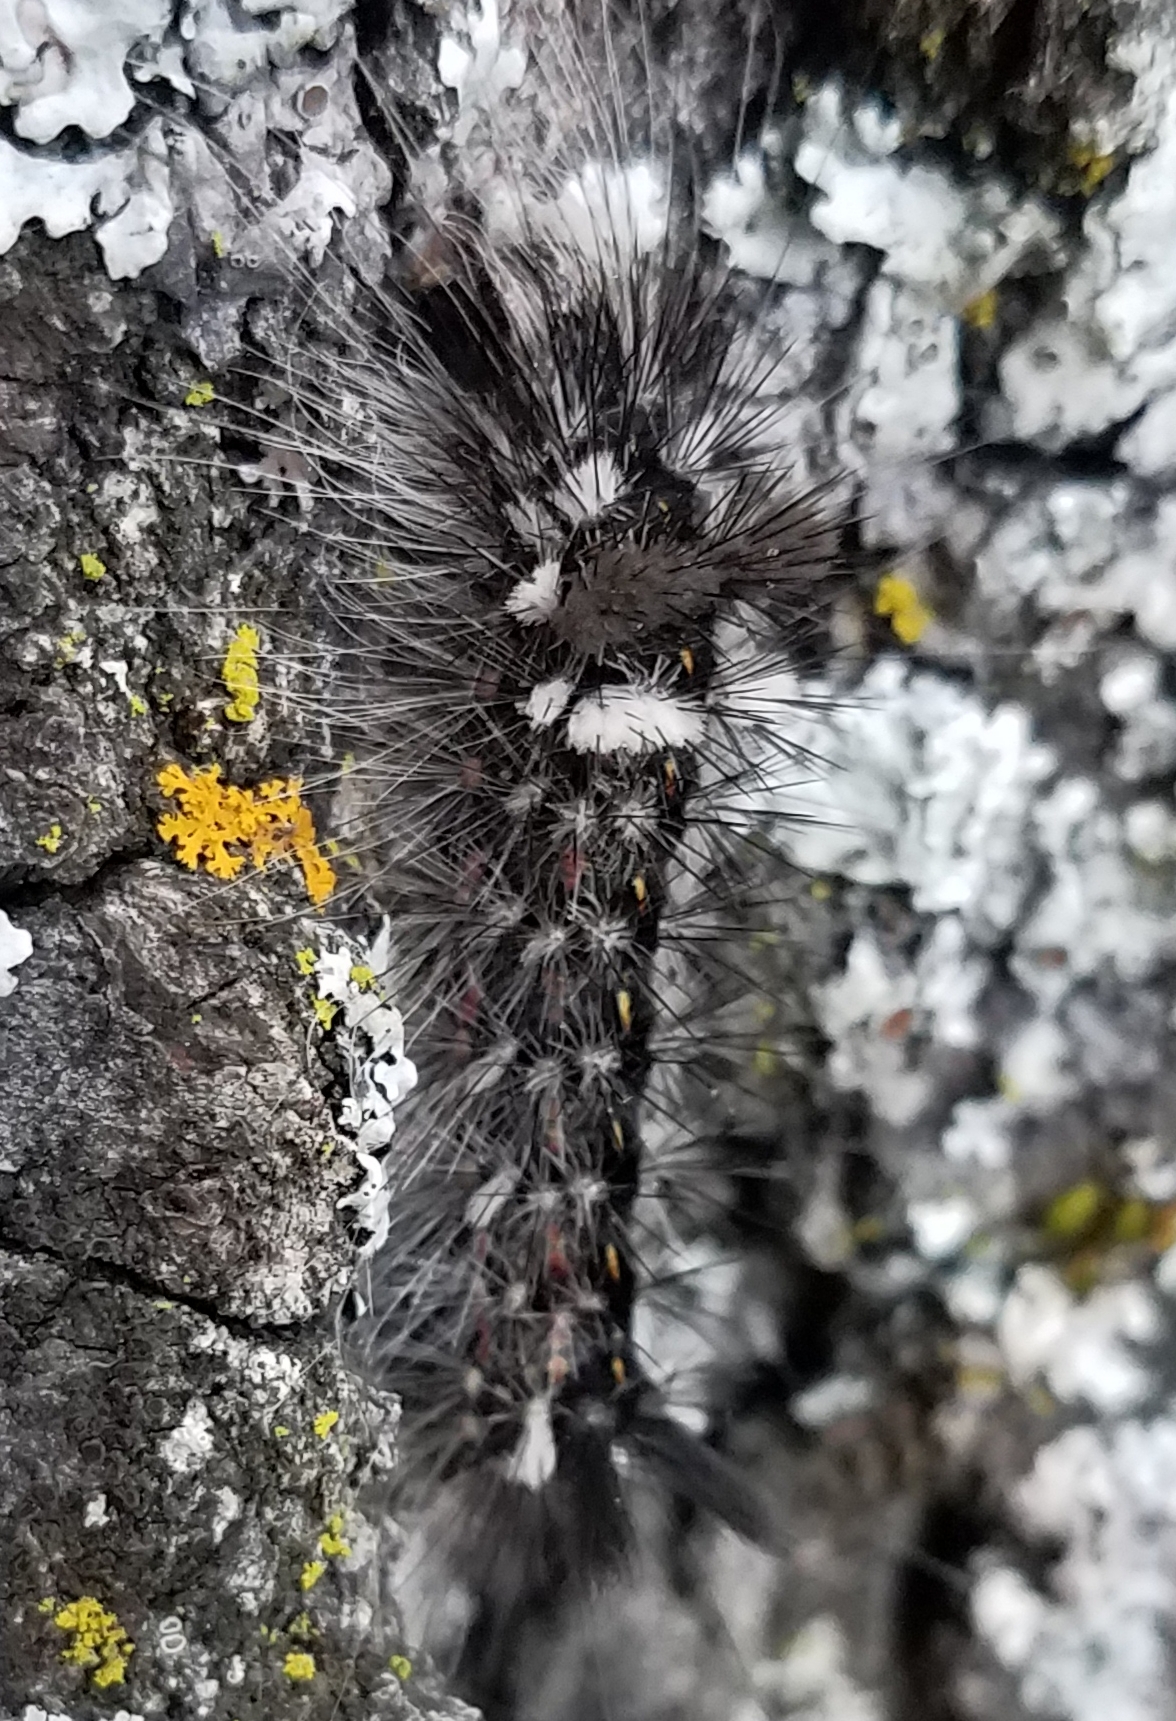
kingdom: Animalia
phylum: Arthropoda
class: Insecta
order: Lepidoptera
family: Noctuidae
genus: Acronicta
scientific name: Acronicta impleta
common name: Powdered dagger
